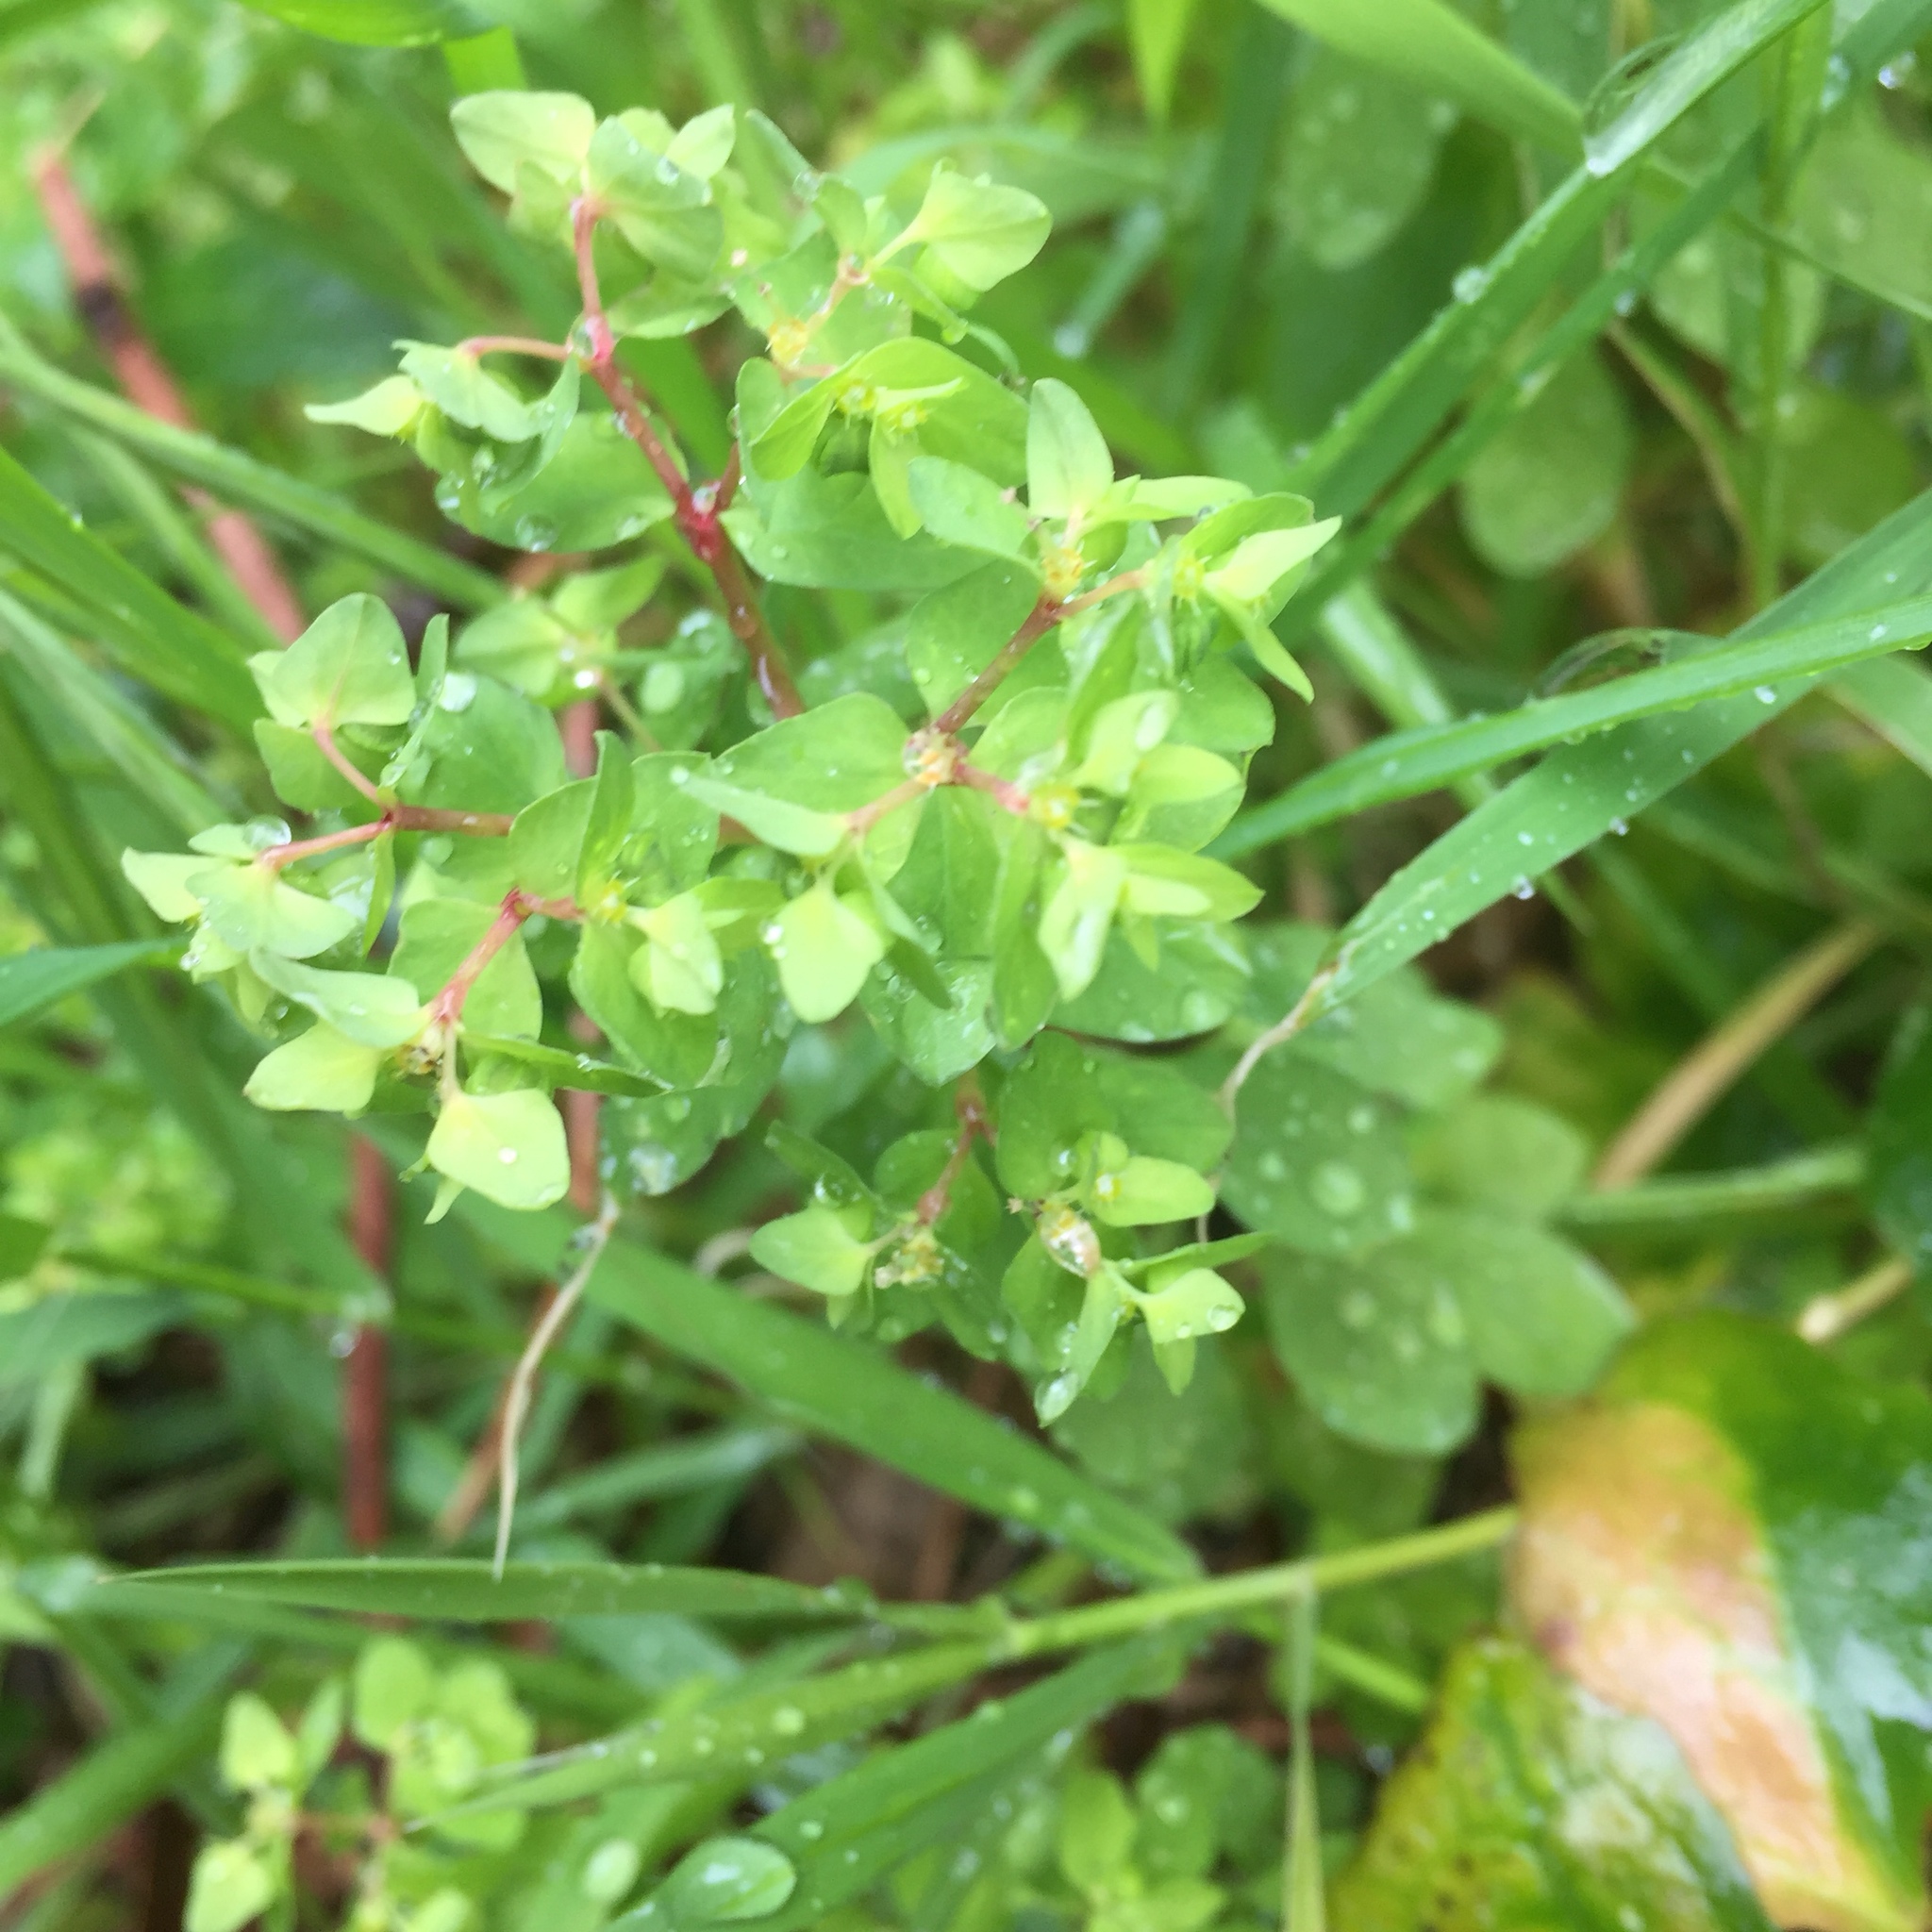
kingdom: Plantae
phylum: Tracheophyta
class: Magnoliopsida
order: Malpighiales
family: Euphorbiaceae
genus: Euphorbia
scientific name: Euphorbia peplus
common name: Petty spurge
